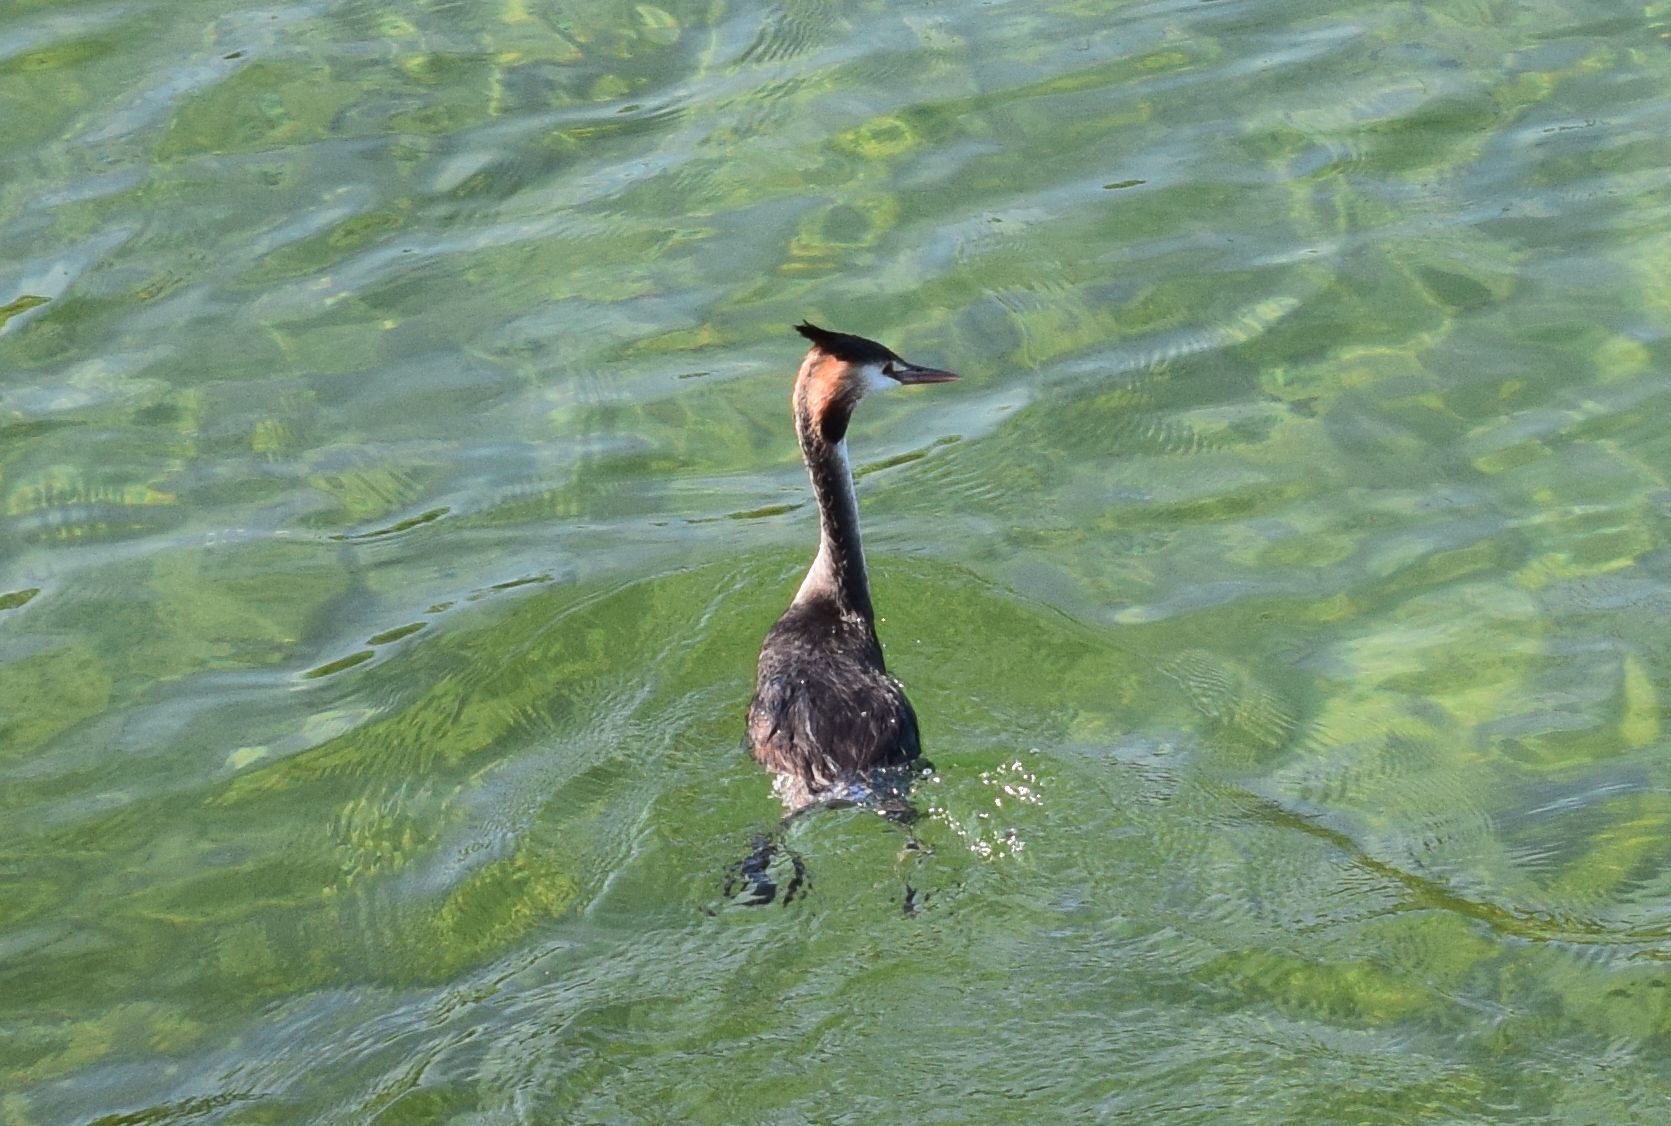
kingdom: Animalia
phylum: Chordata
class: Aves
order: Podicipediformes
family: Podicipedidae
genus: Podiceps
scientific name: Podiceps cristatus
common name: Great crested grebe
